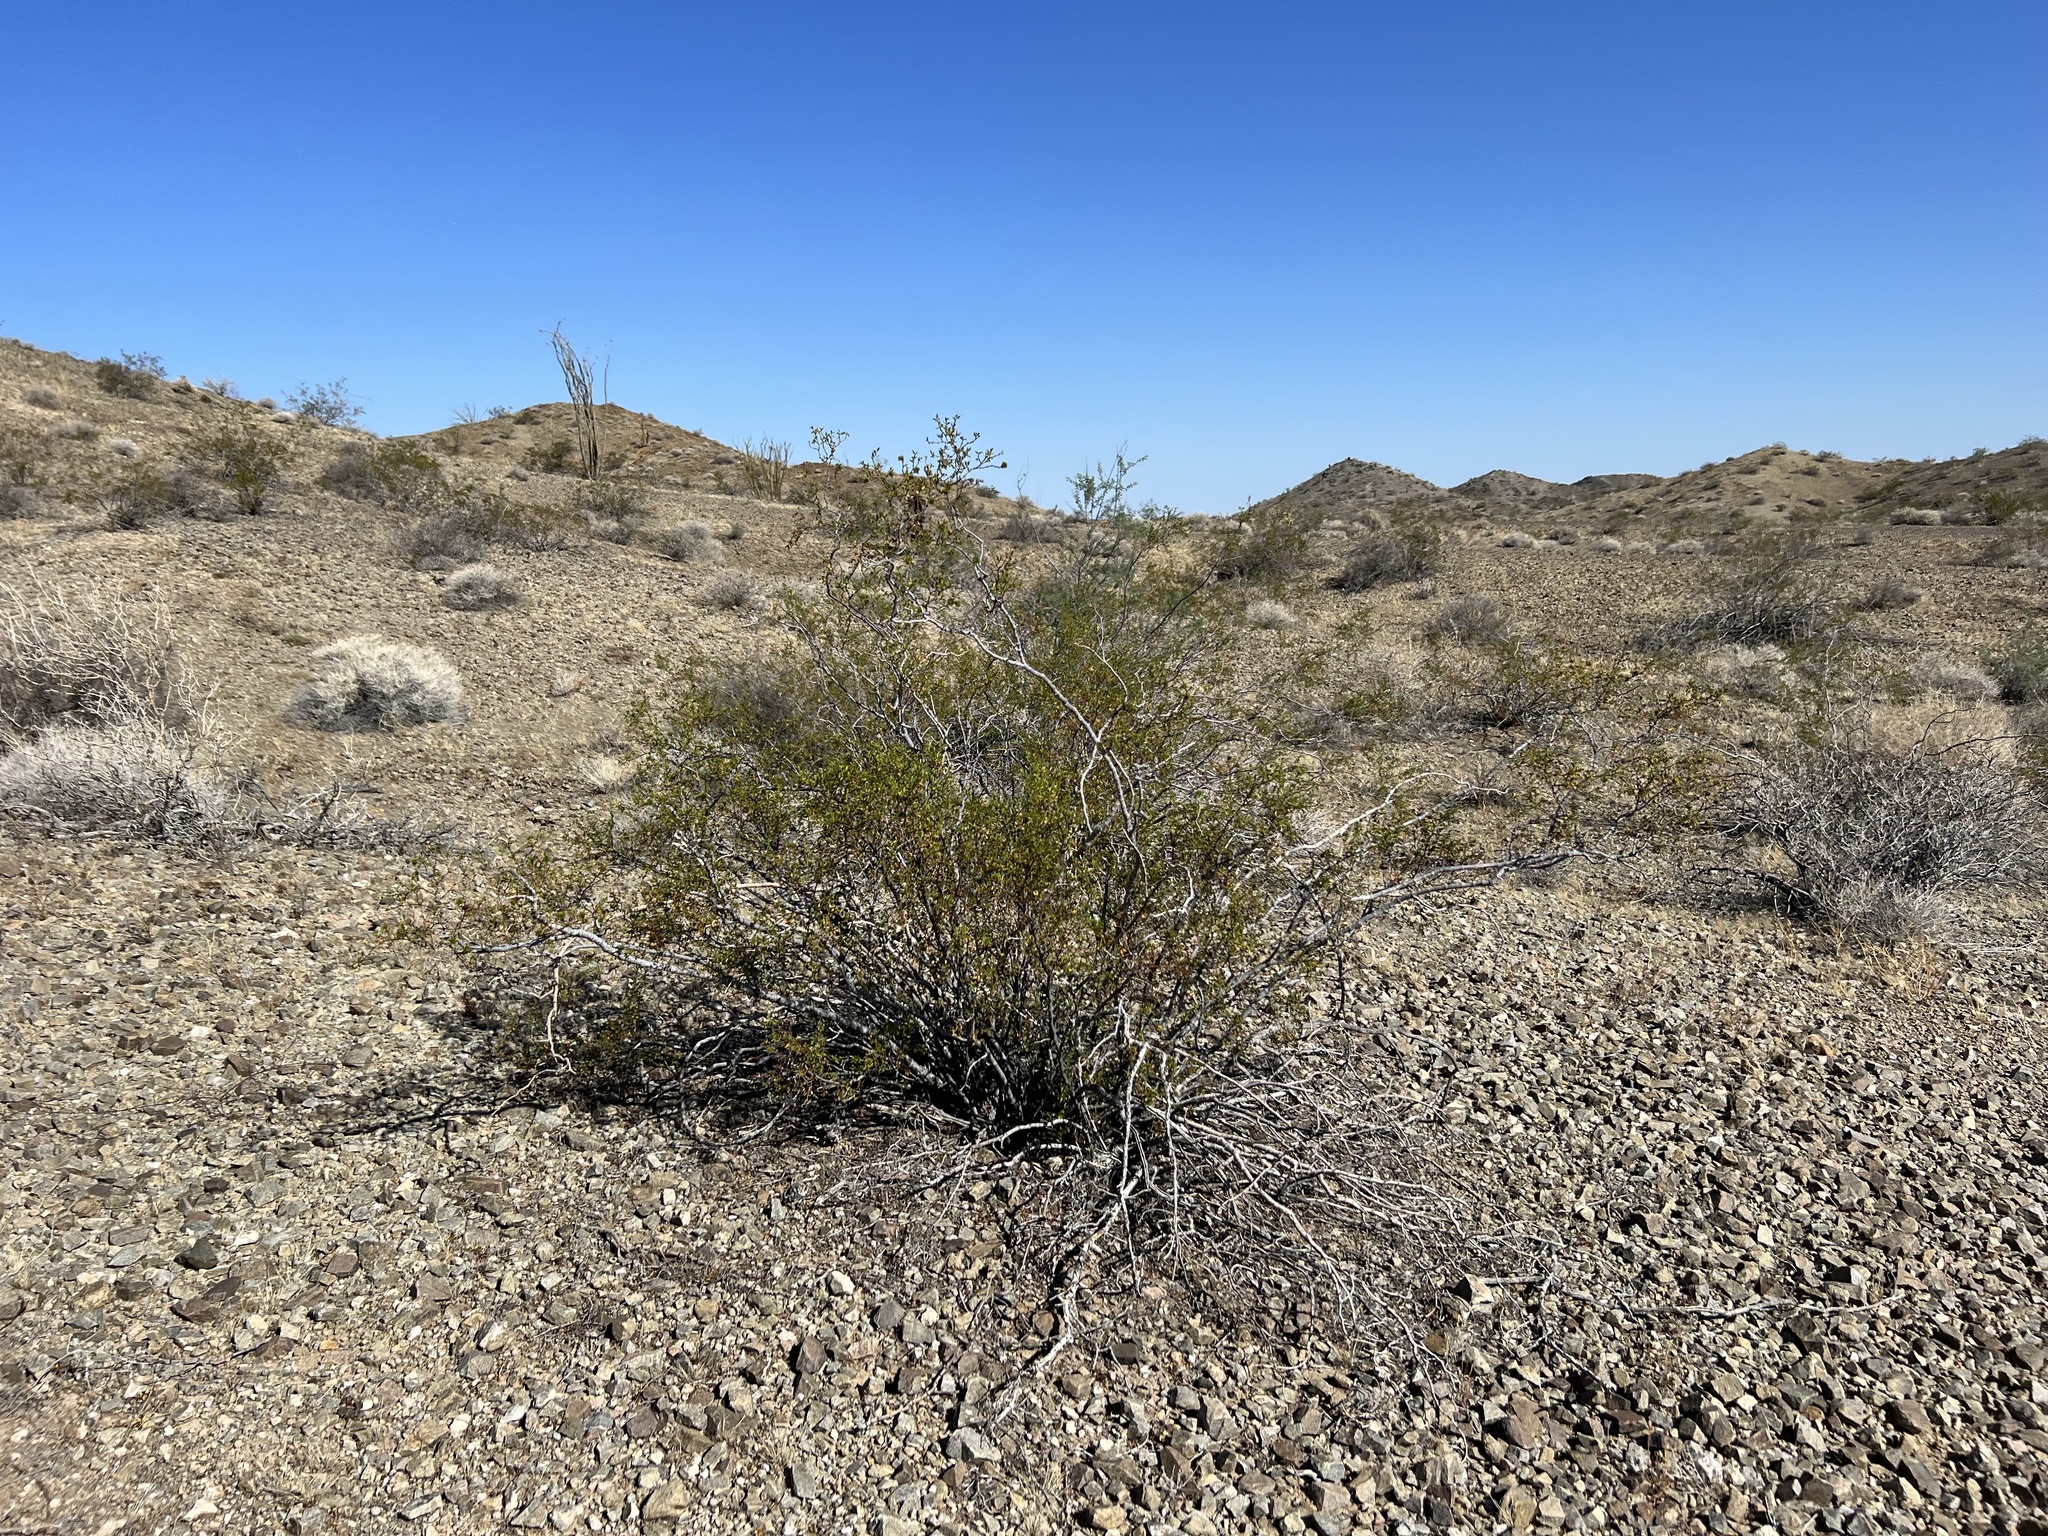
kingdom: Plantae
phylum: Tracheophyta
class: Magnoliopsida
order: Zygophyllales
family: Zygophyllaceae
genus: Larrea
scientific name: Larrea tridentata
